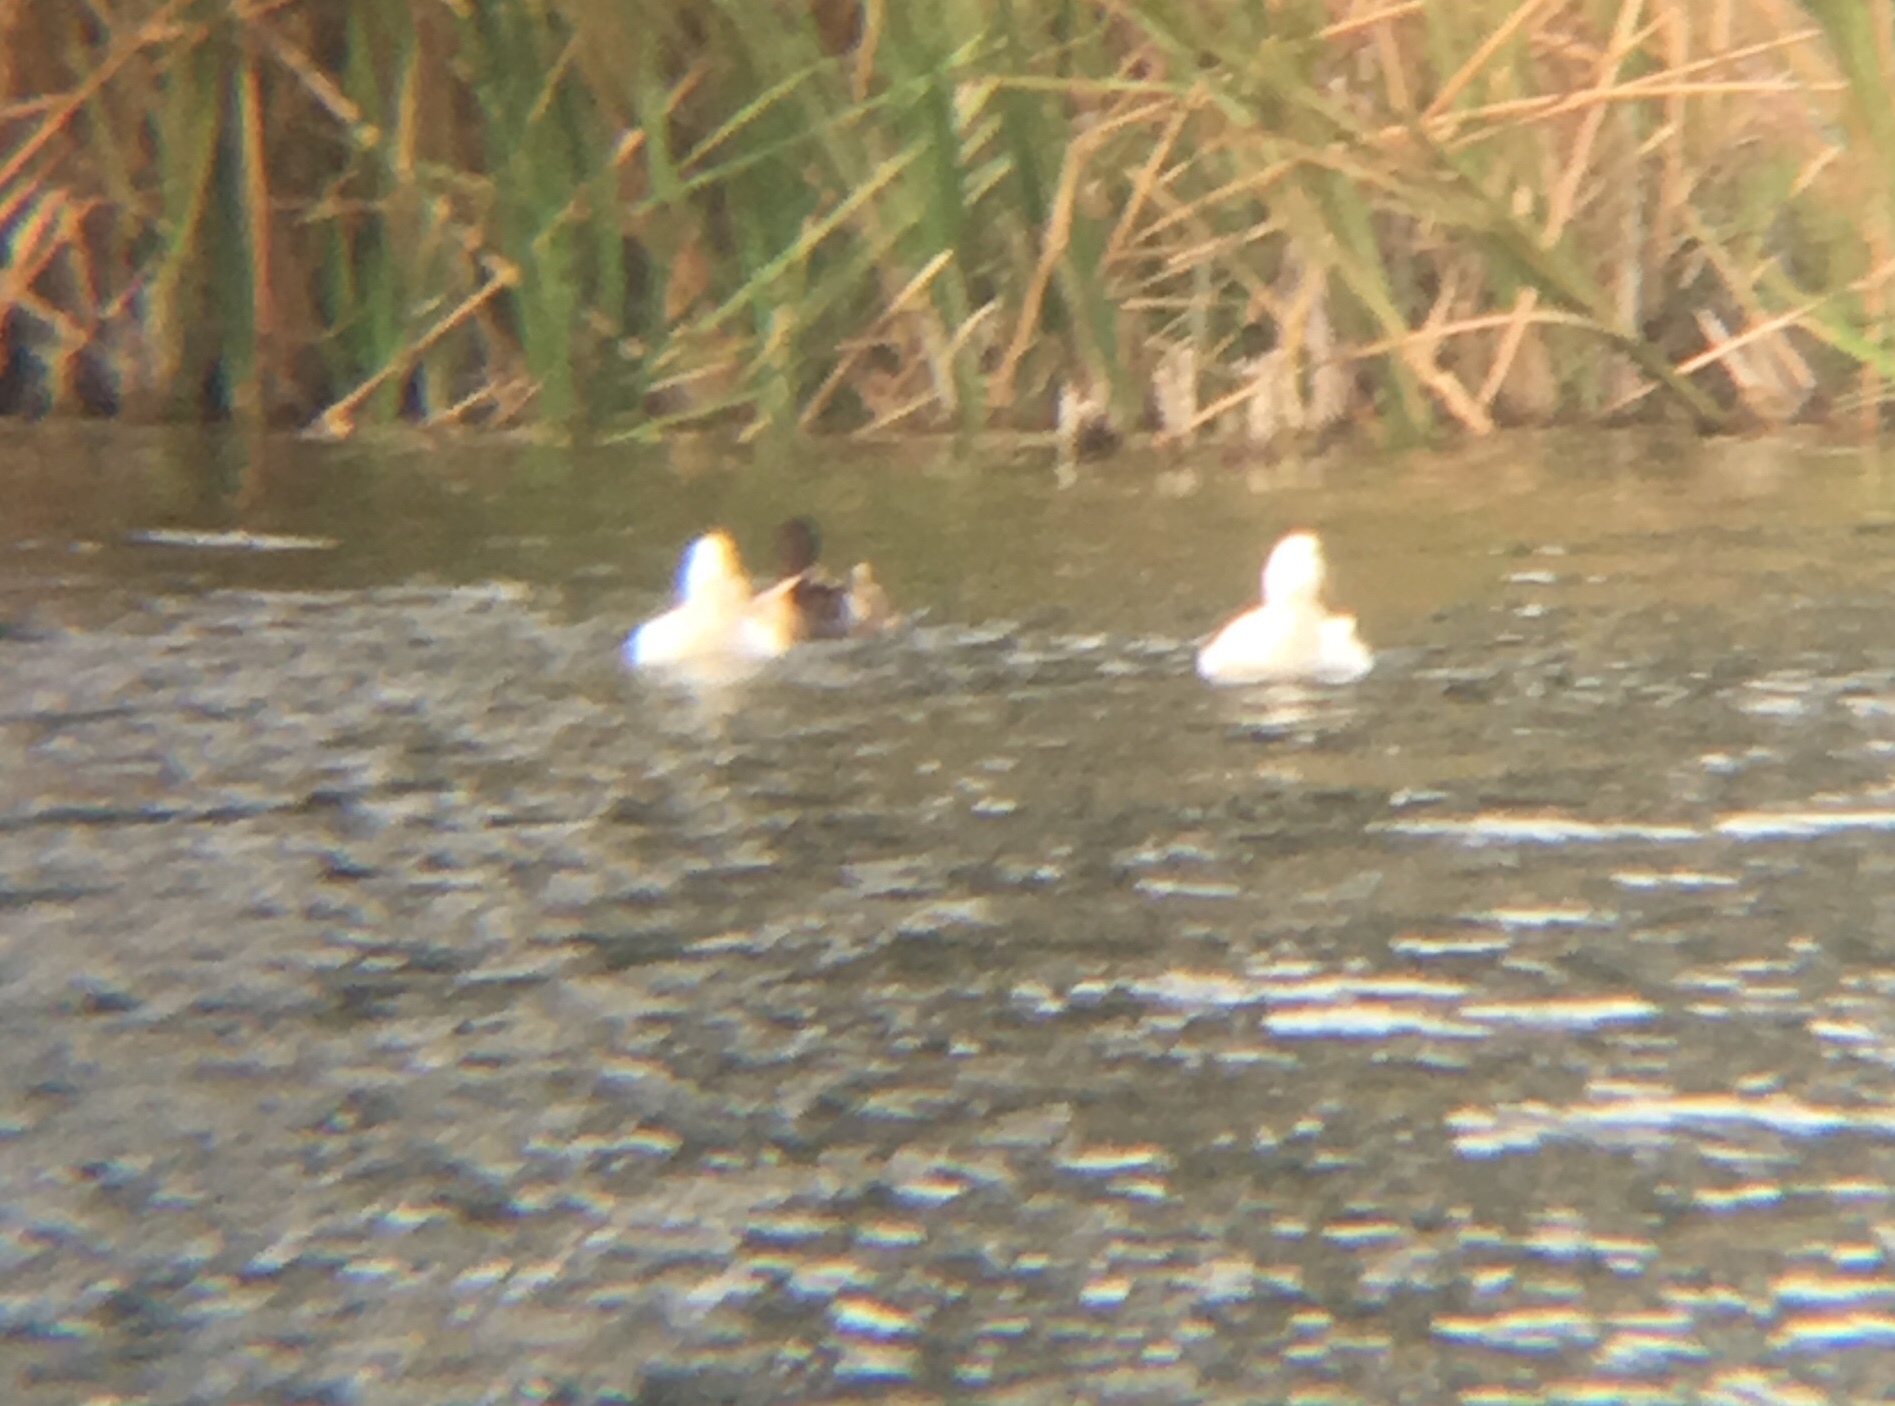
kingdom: Animalia
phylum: Chordata
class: Aves
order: Anseriformes
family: Anatidae
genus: Anas
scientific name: Anas platyrhynchos
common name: Mallard
